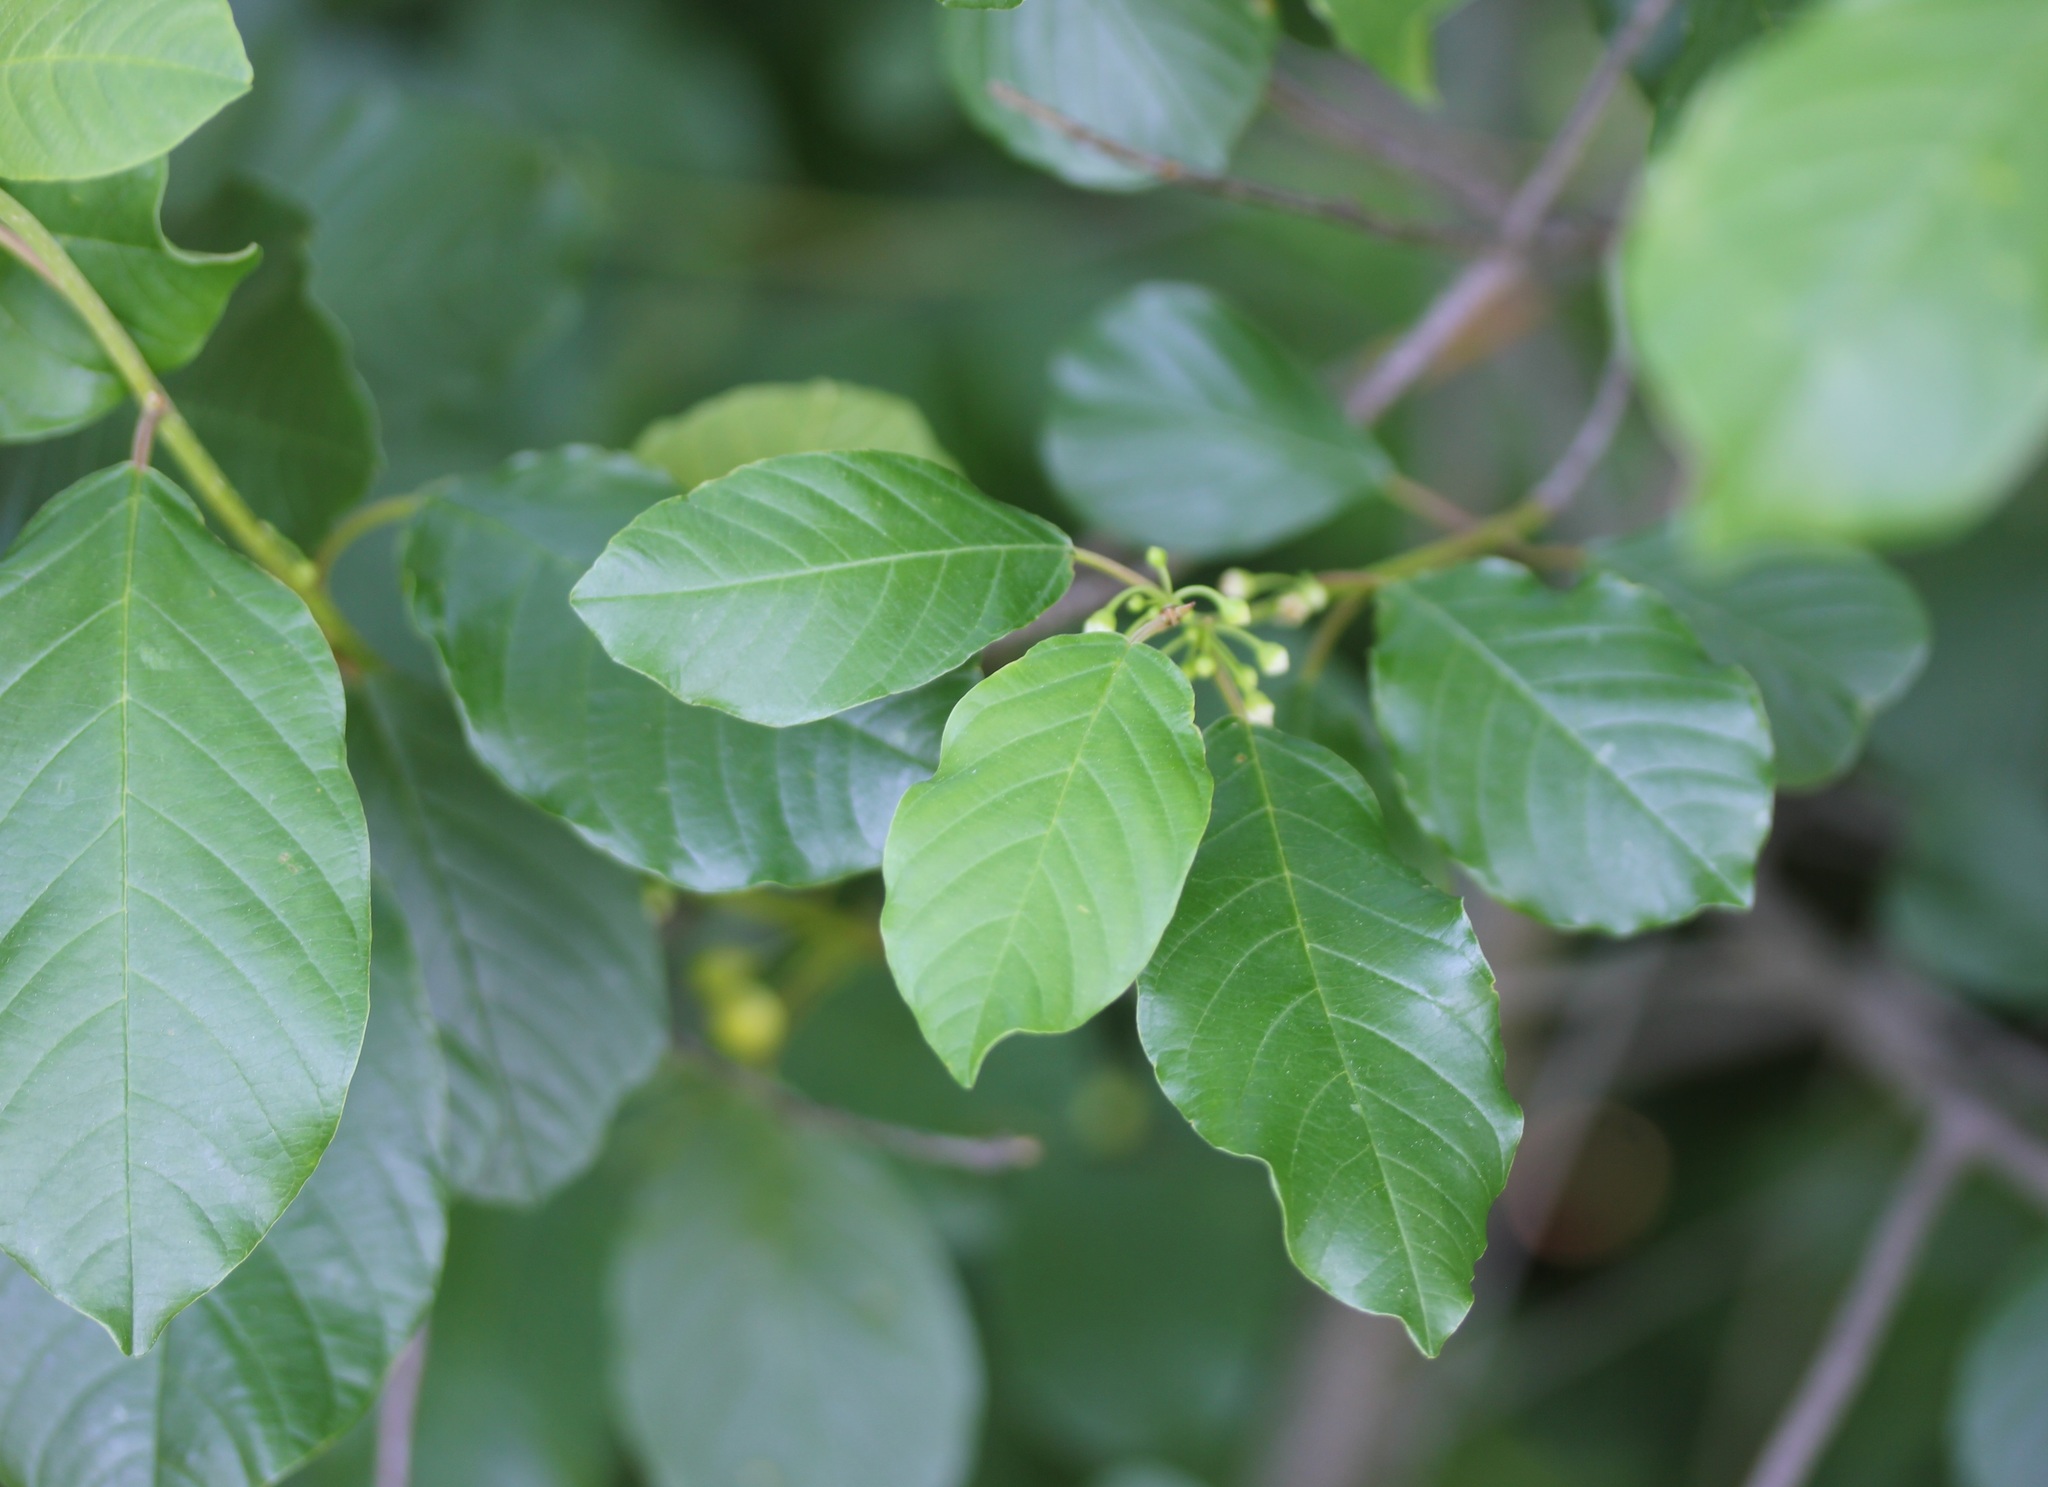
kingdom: Plantae
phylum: Tracheophyta
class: Magnoliopsida
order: Rosales
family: Rhamnaceae
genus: Frangula
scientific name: Frangula alnus
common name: Alder buckthorn
